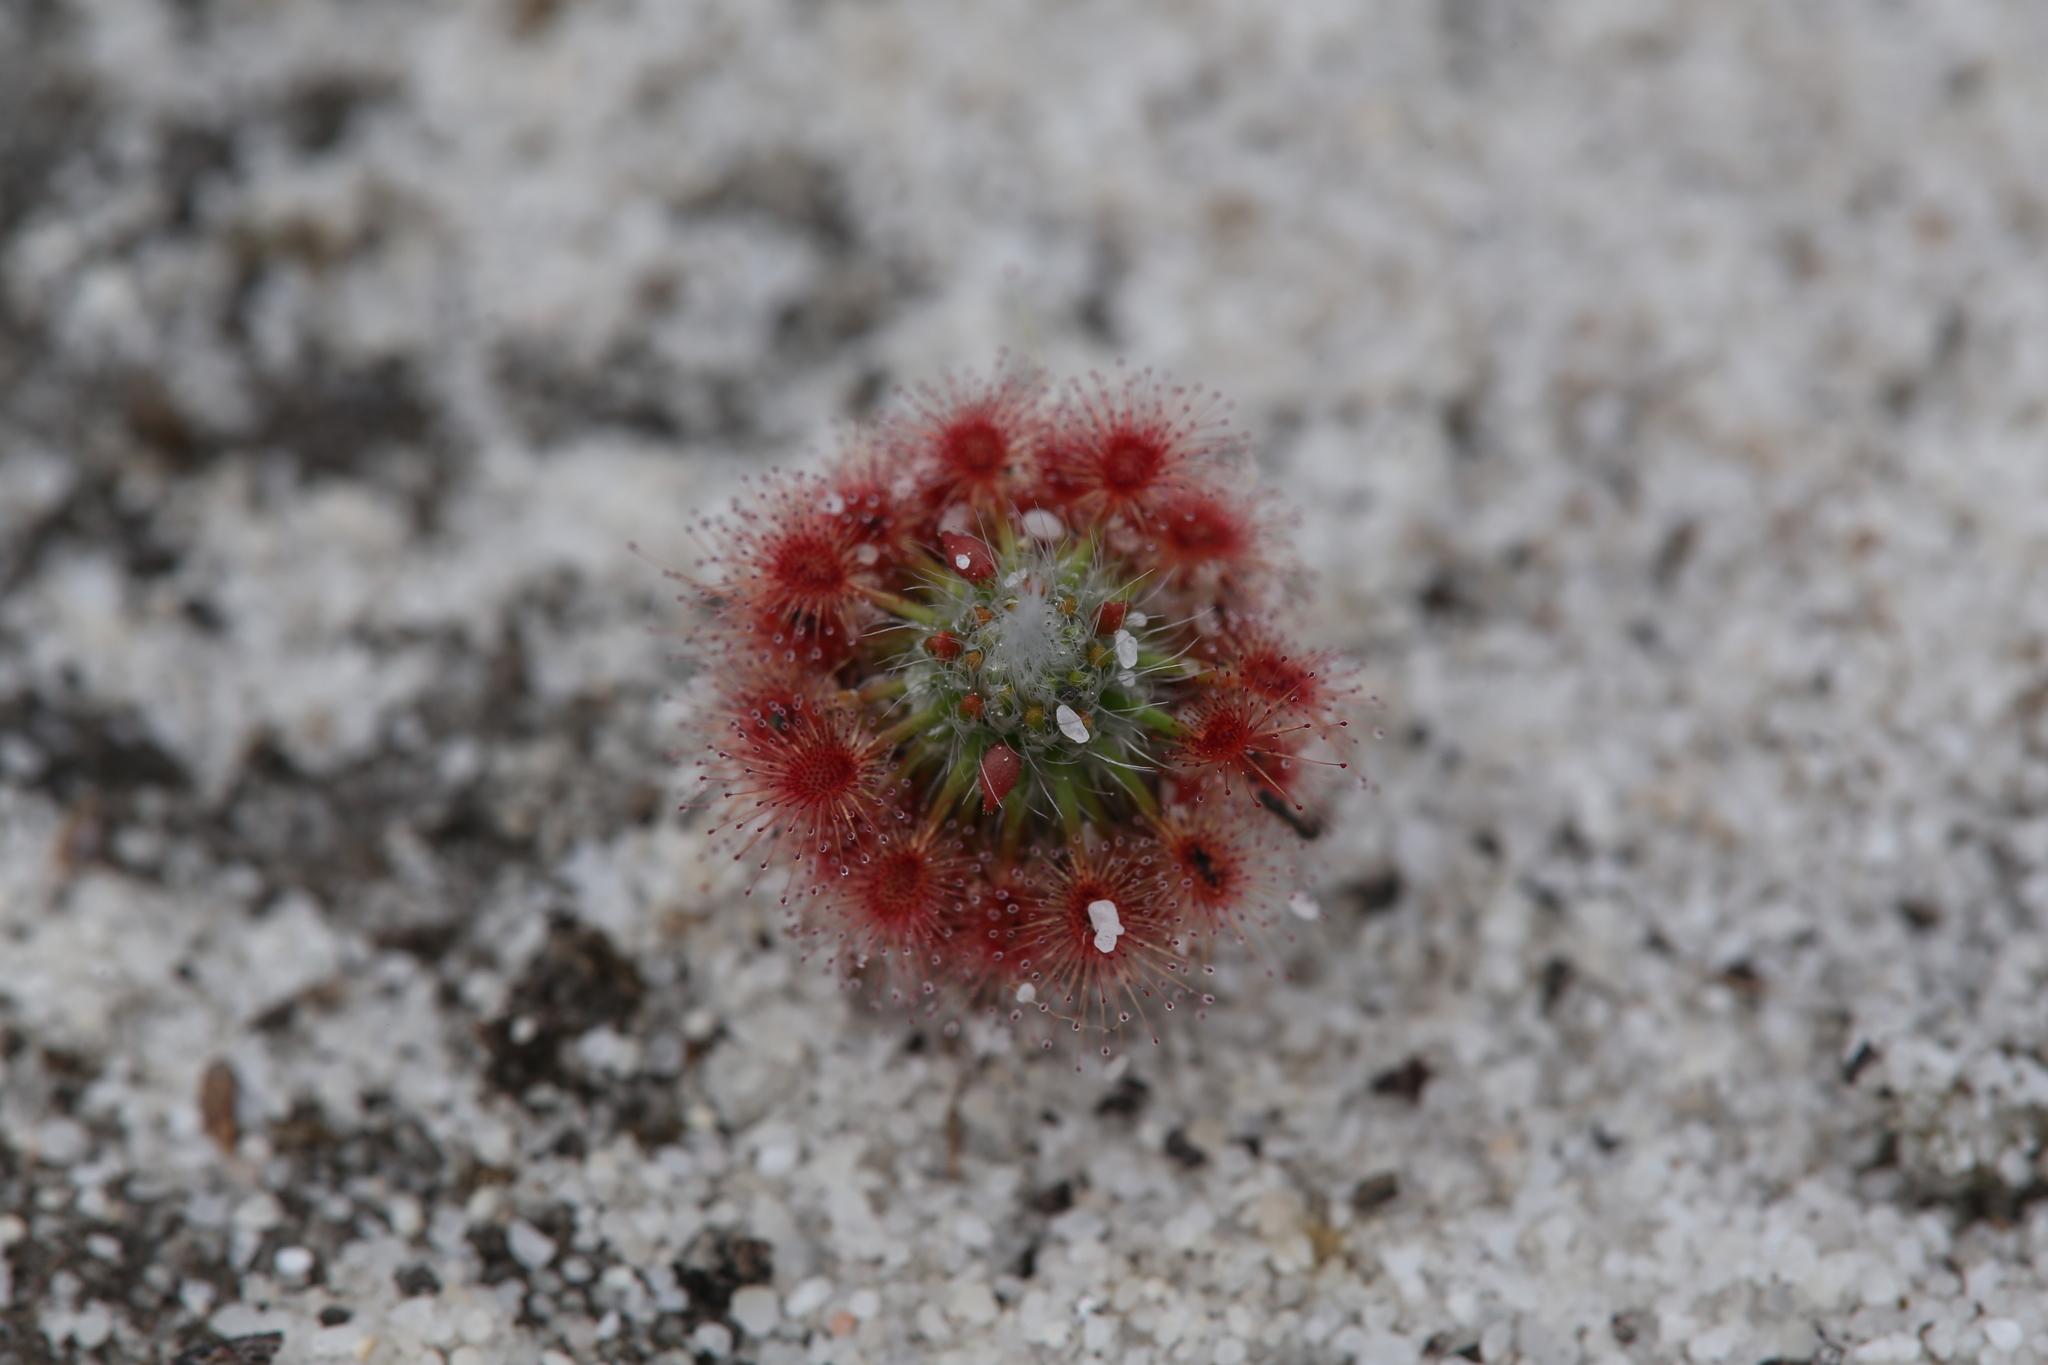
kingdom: Plantae
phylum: Tracheophyta
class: Magnoliopsida
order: Caryophyllales
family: Droseraceae
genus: Drosera
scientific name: Drosera paleacea
